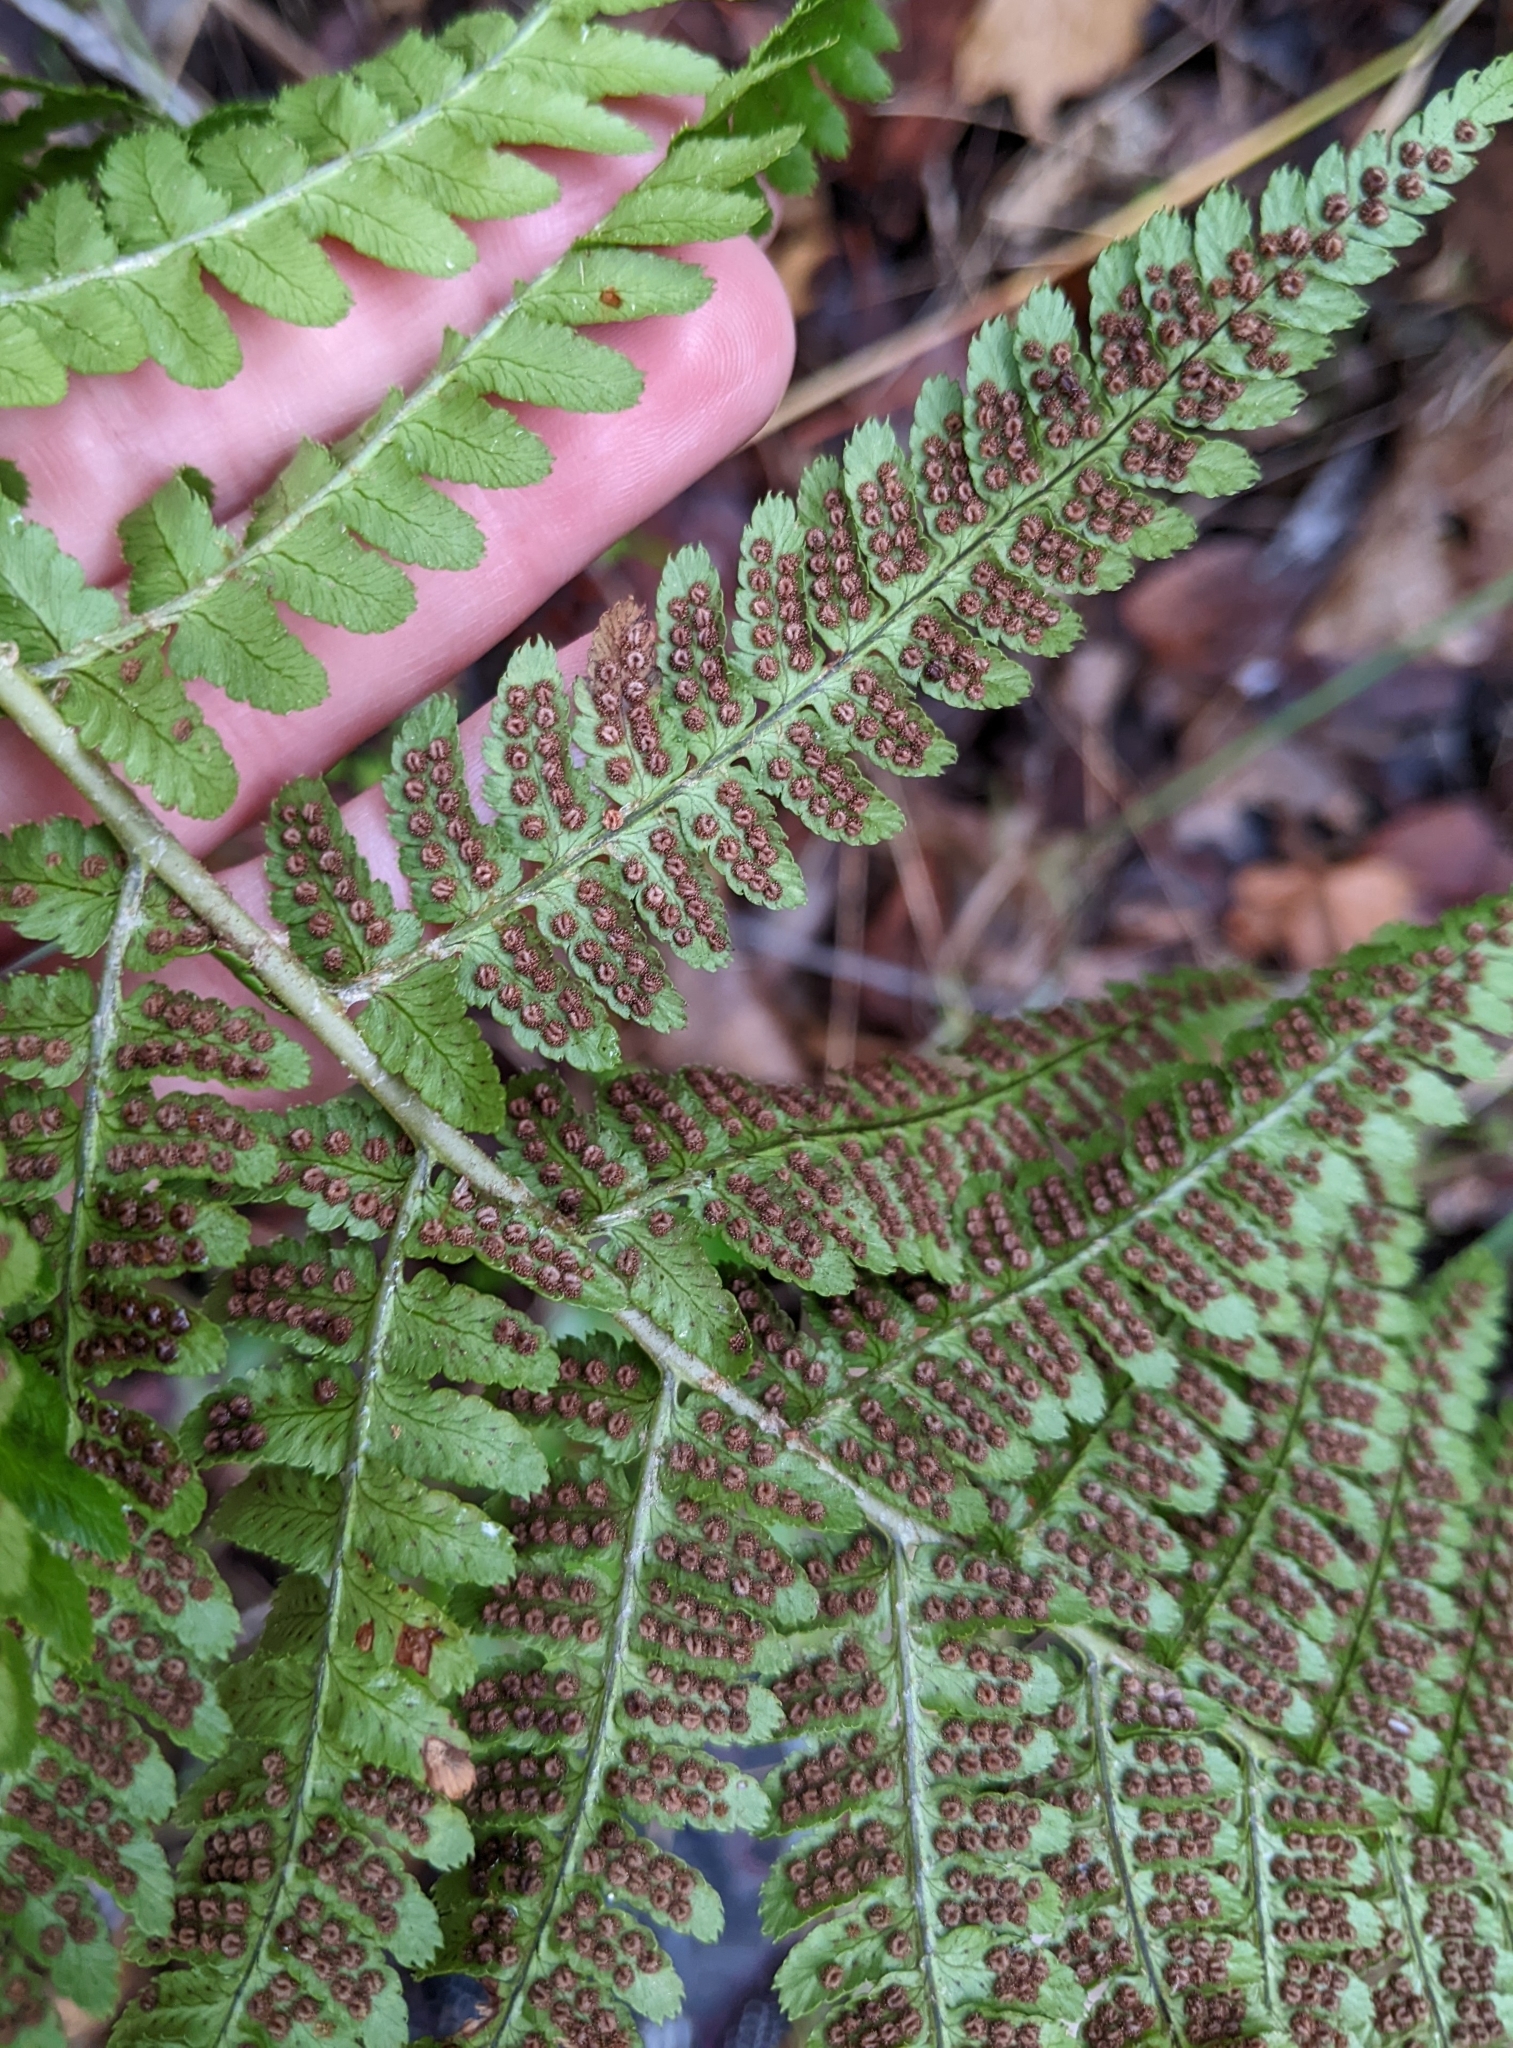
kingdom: Plantae
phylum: Tracheophyta
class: Polypodiopsida
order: Polypodiales
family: Dryopteridaceae
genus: Dryopteris
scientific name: Dryopteris arguta
